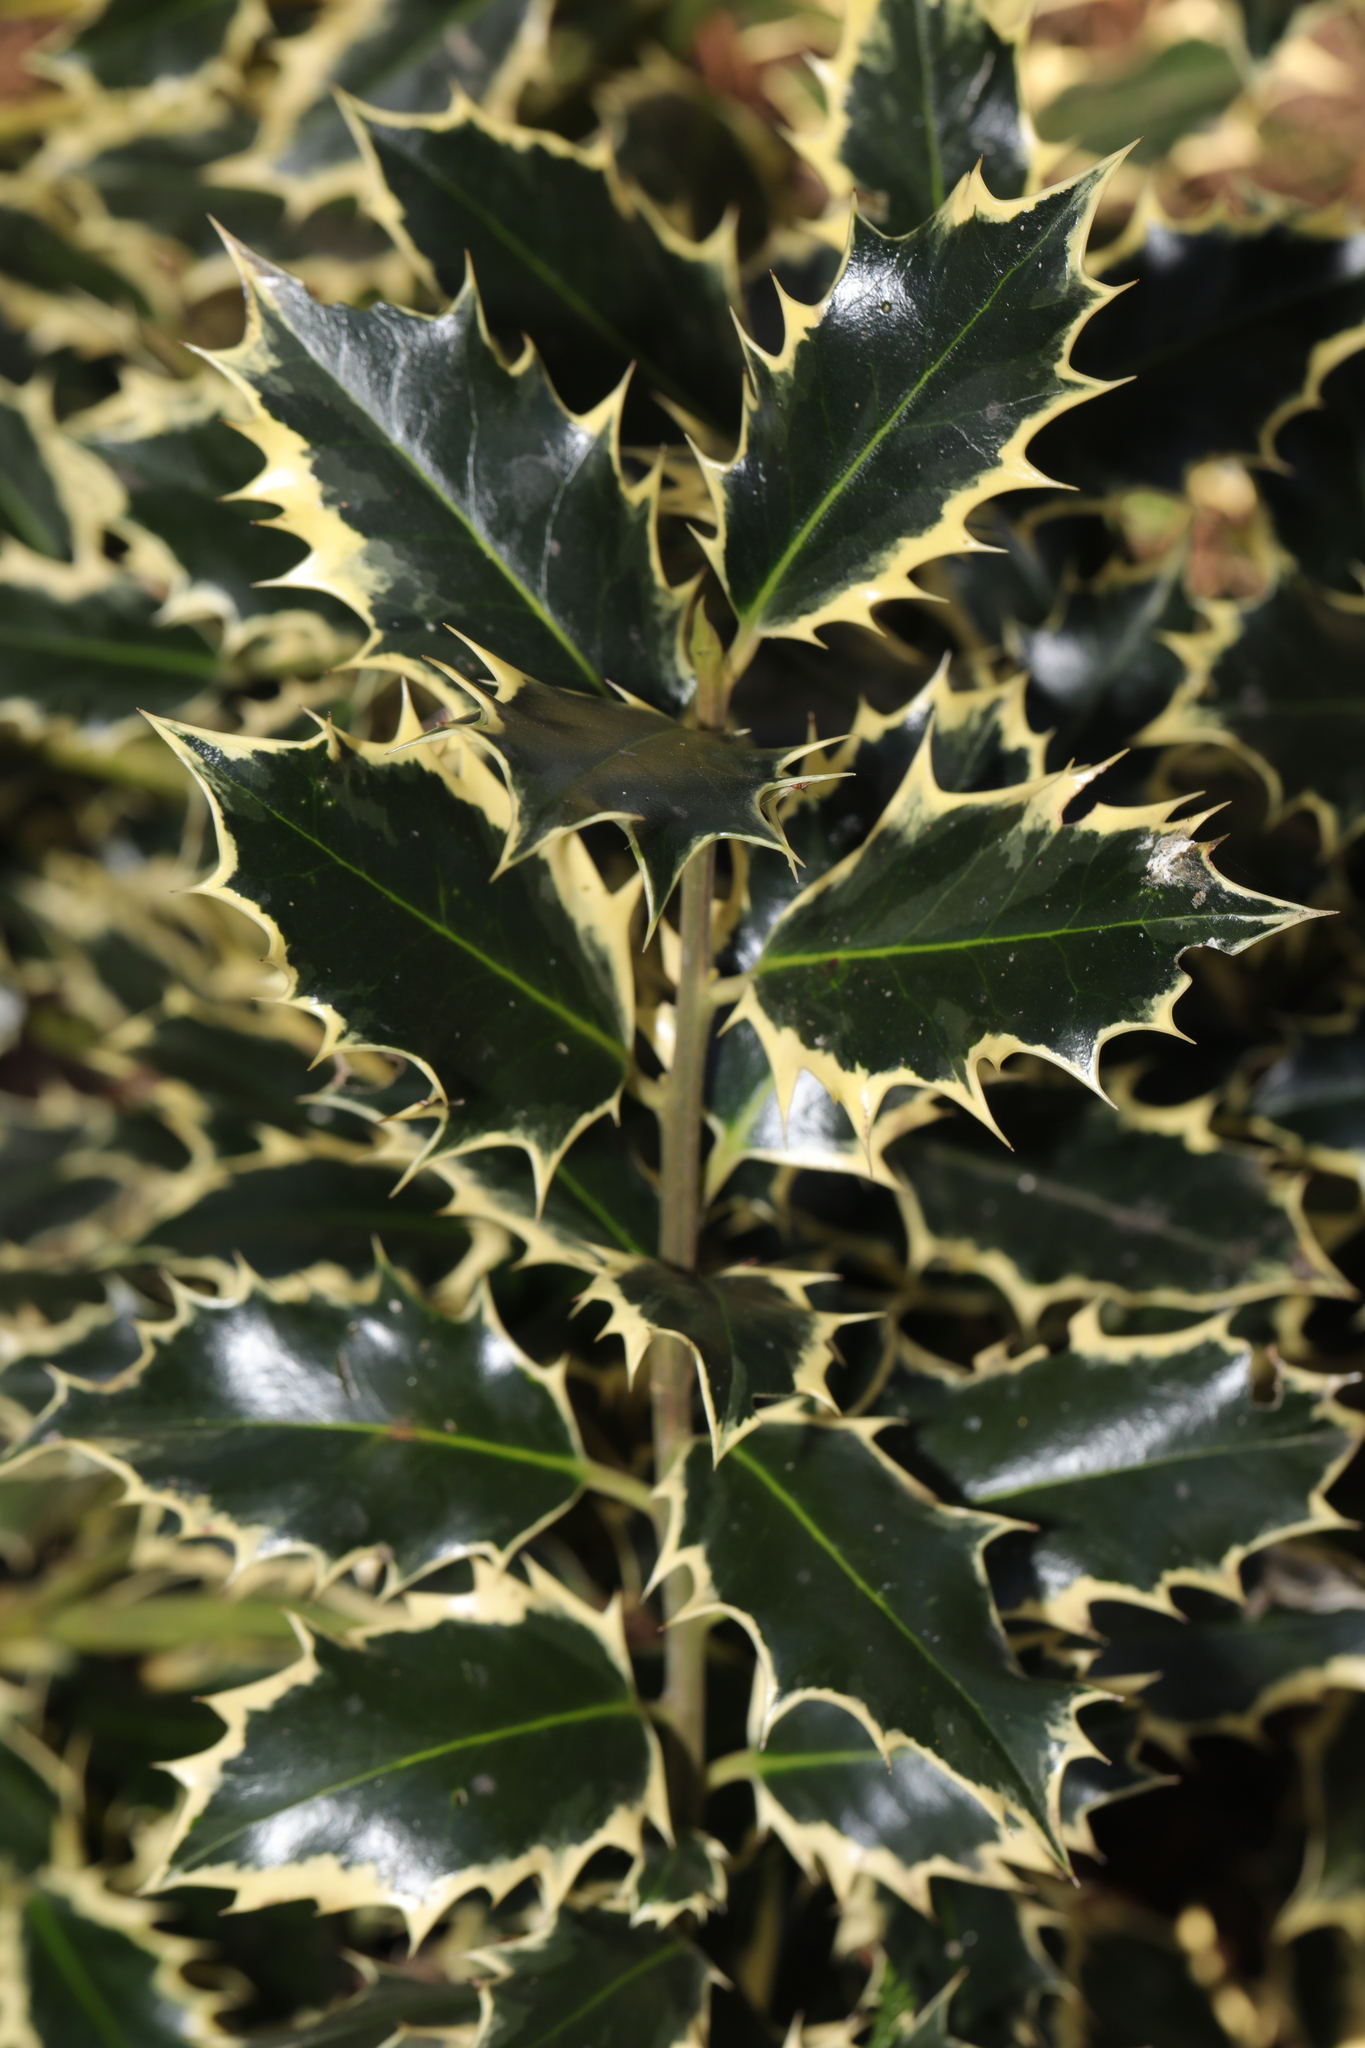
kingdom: Plantae
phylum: Tracheophyta
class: Magnoliopsida
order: Aquifoliales
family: Aquifoliaceae
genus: Ilex
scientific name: Ilex aquifolium
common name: English holly
